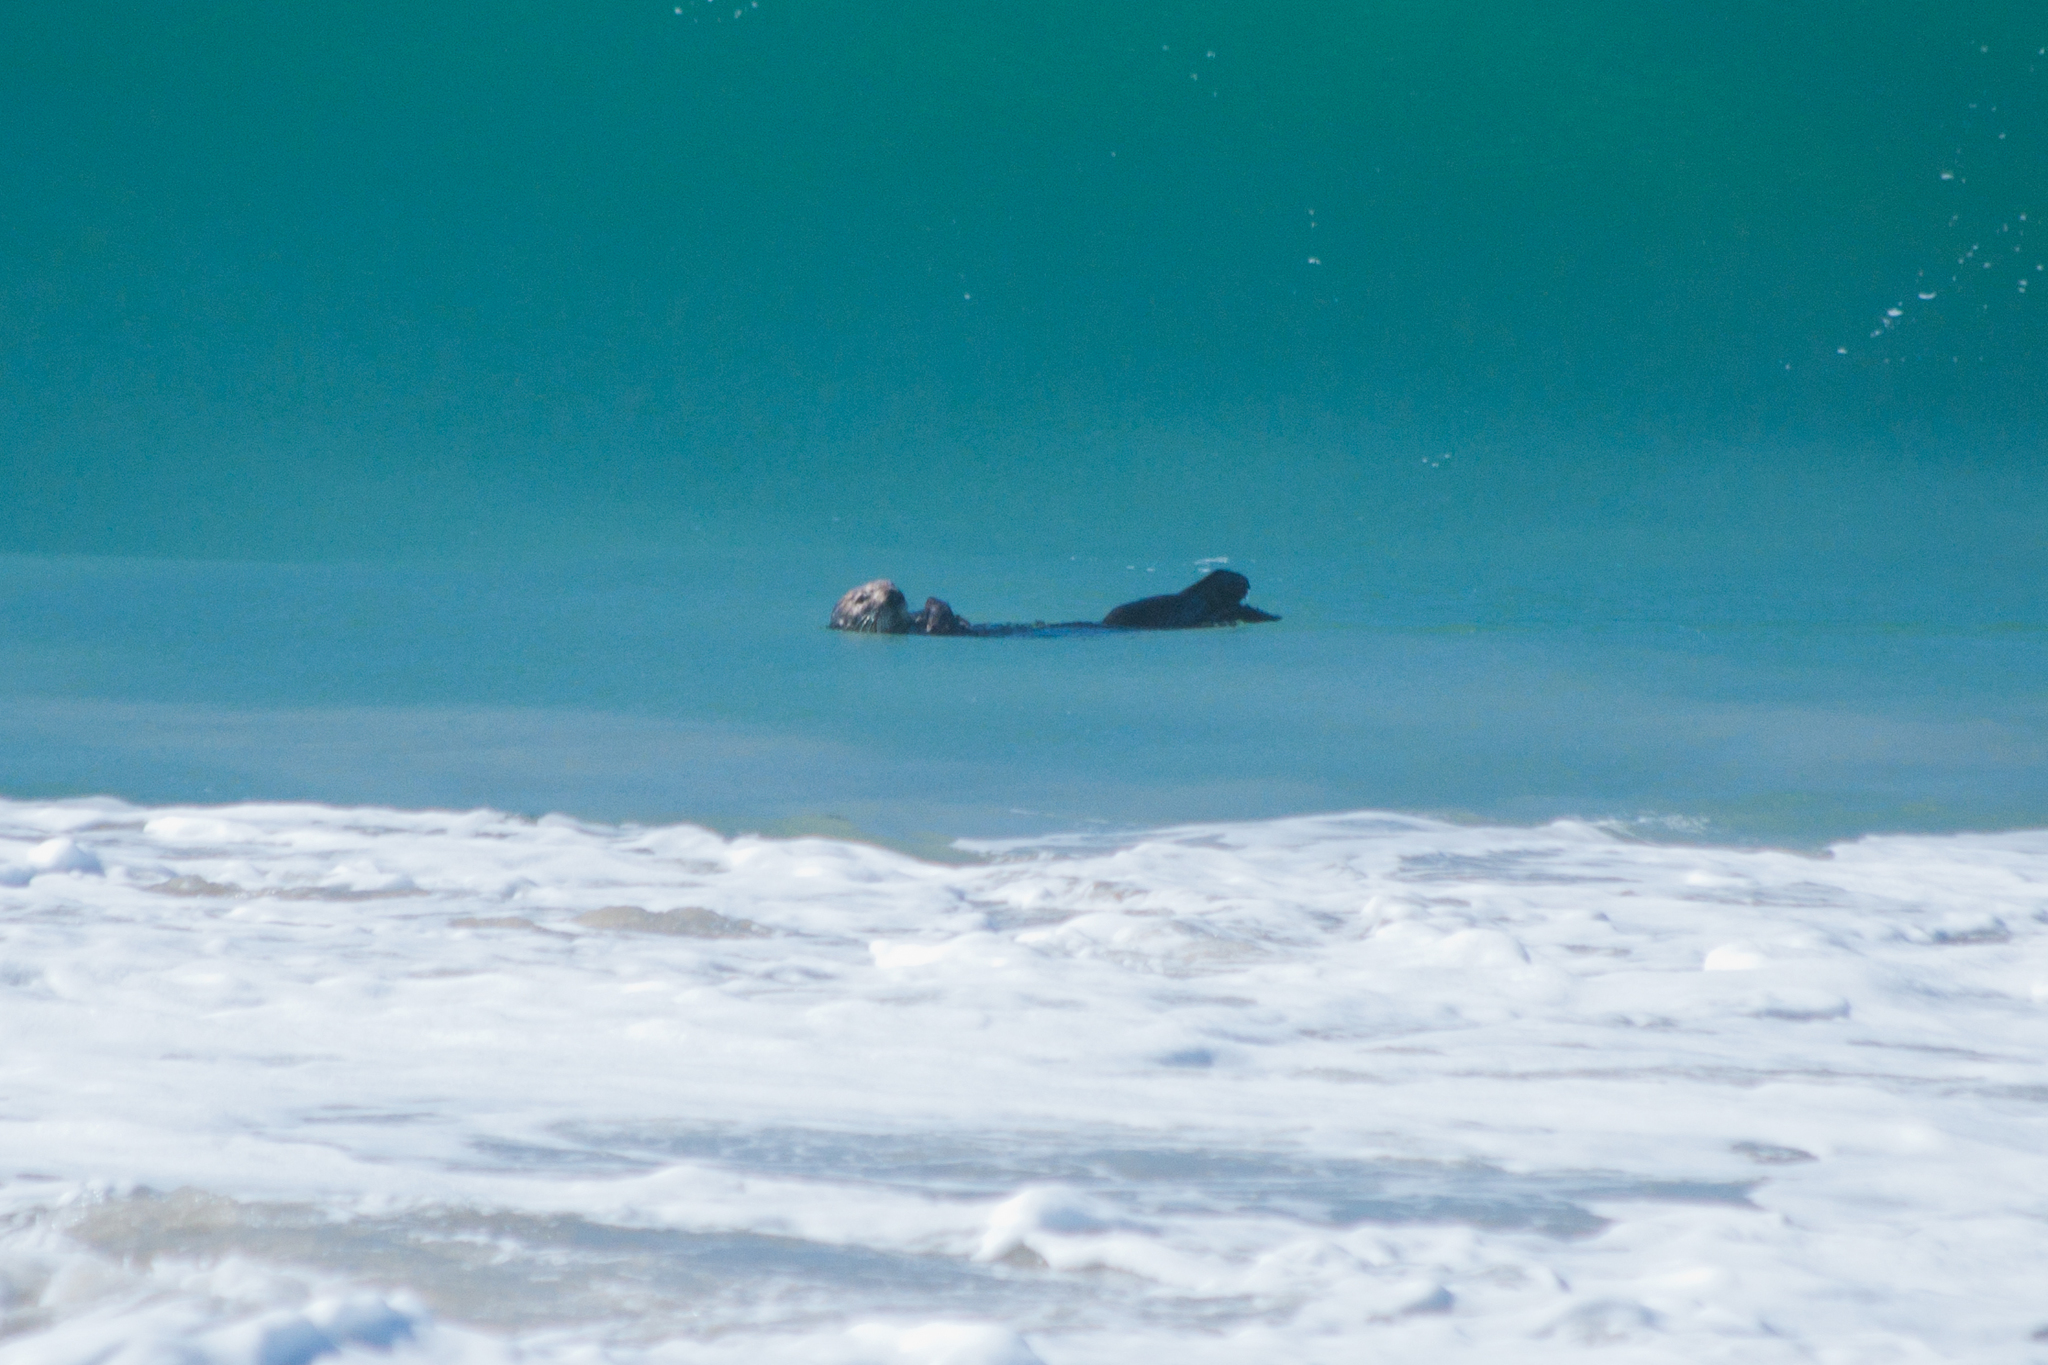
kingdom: Animalia
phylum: Chordata
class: Mammalia
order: Carnivora
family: Mustelidae
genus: Enhydra
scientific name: Enhydra lutris
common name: Sea otter
